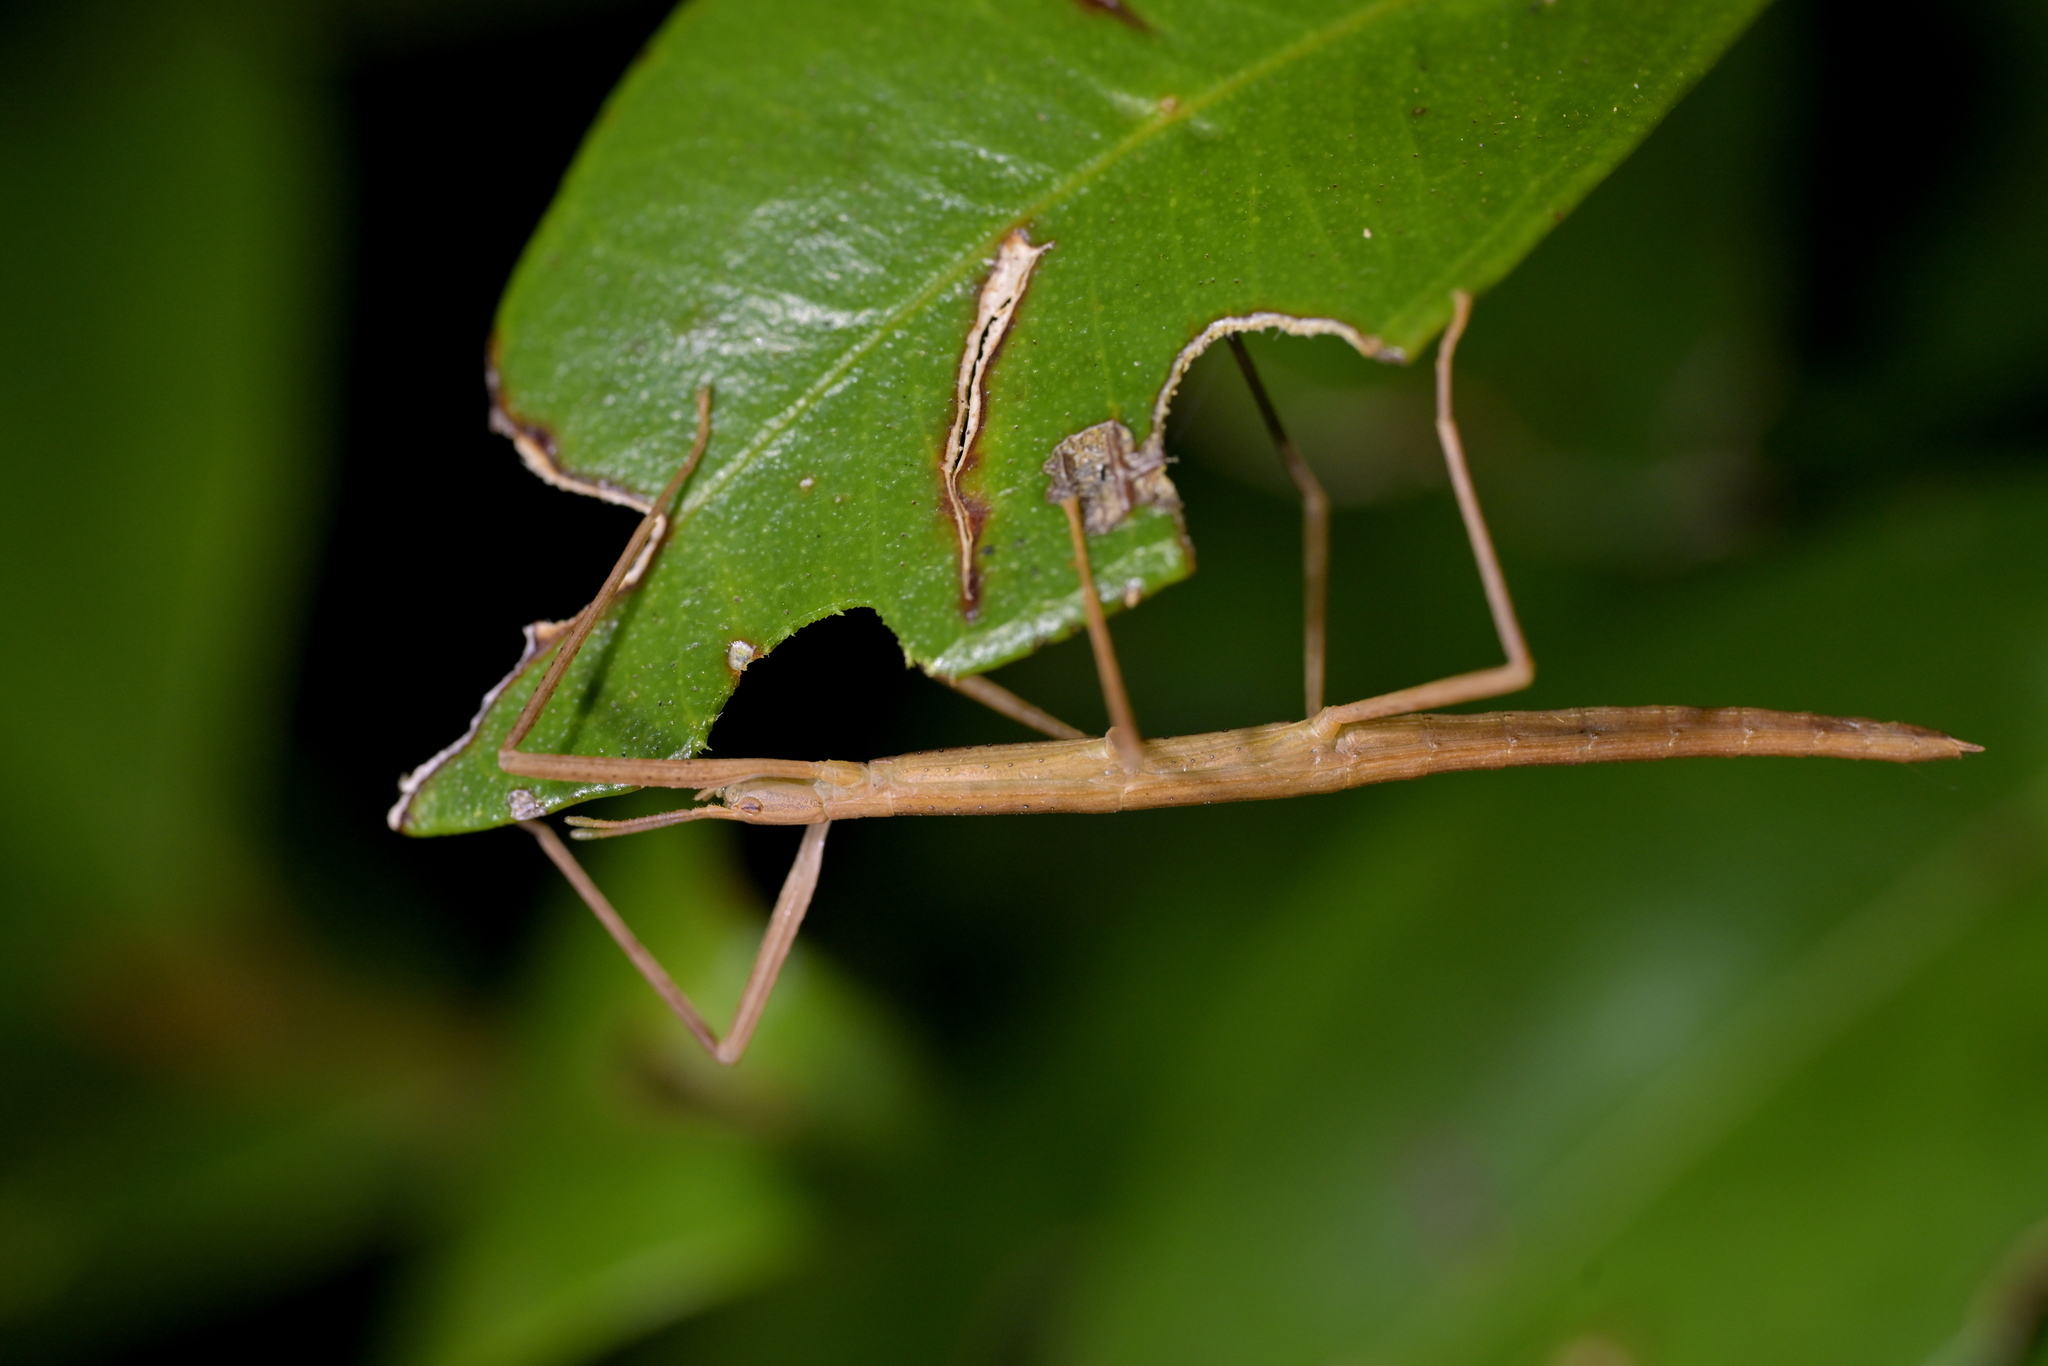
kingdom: Animalia
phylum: Arthropoda
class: Insecta
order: Phasmida
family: Phasmatidae
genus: Tectarchus
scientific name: Tectarchus huttoni
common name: The common ridge-backed stick insect
